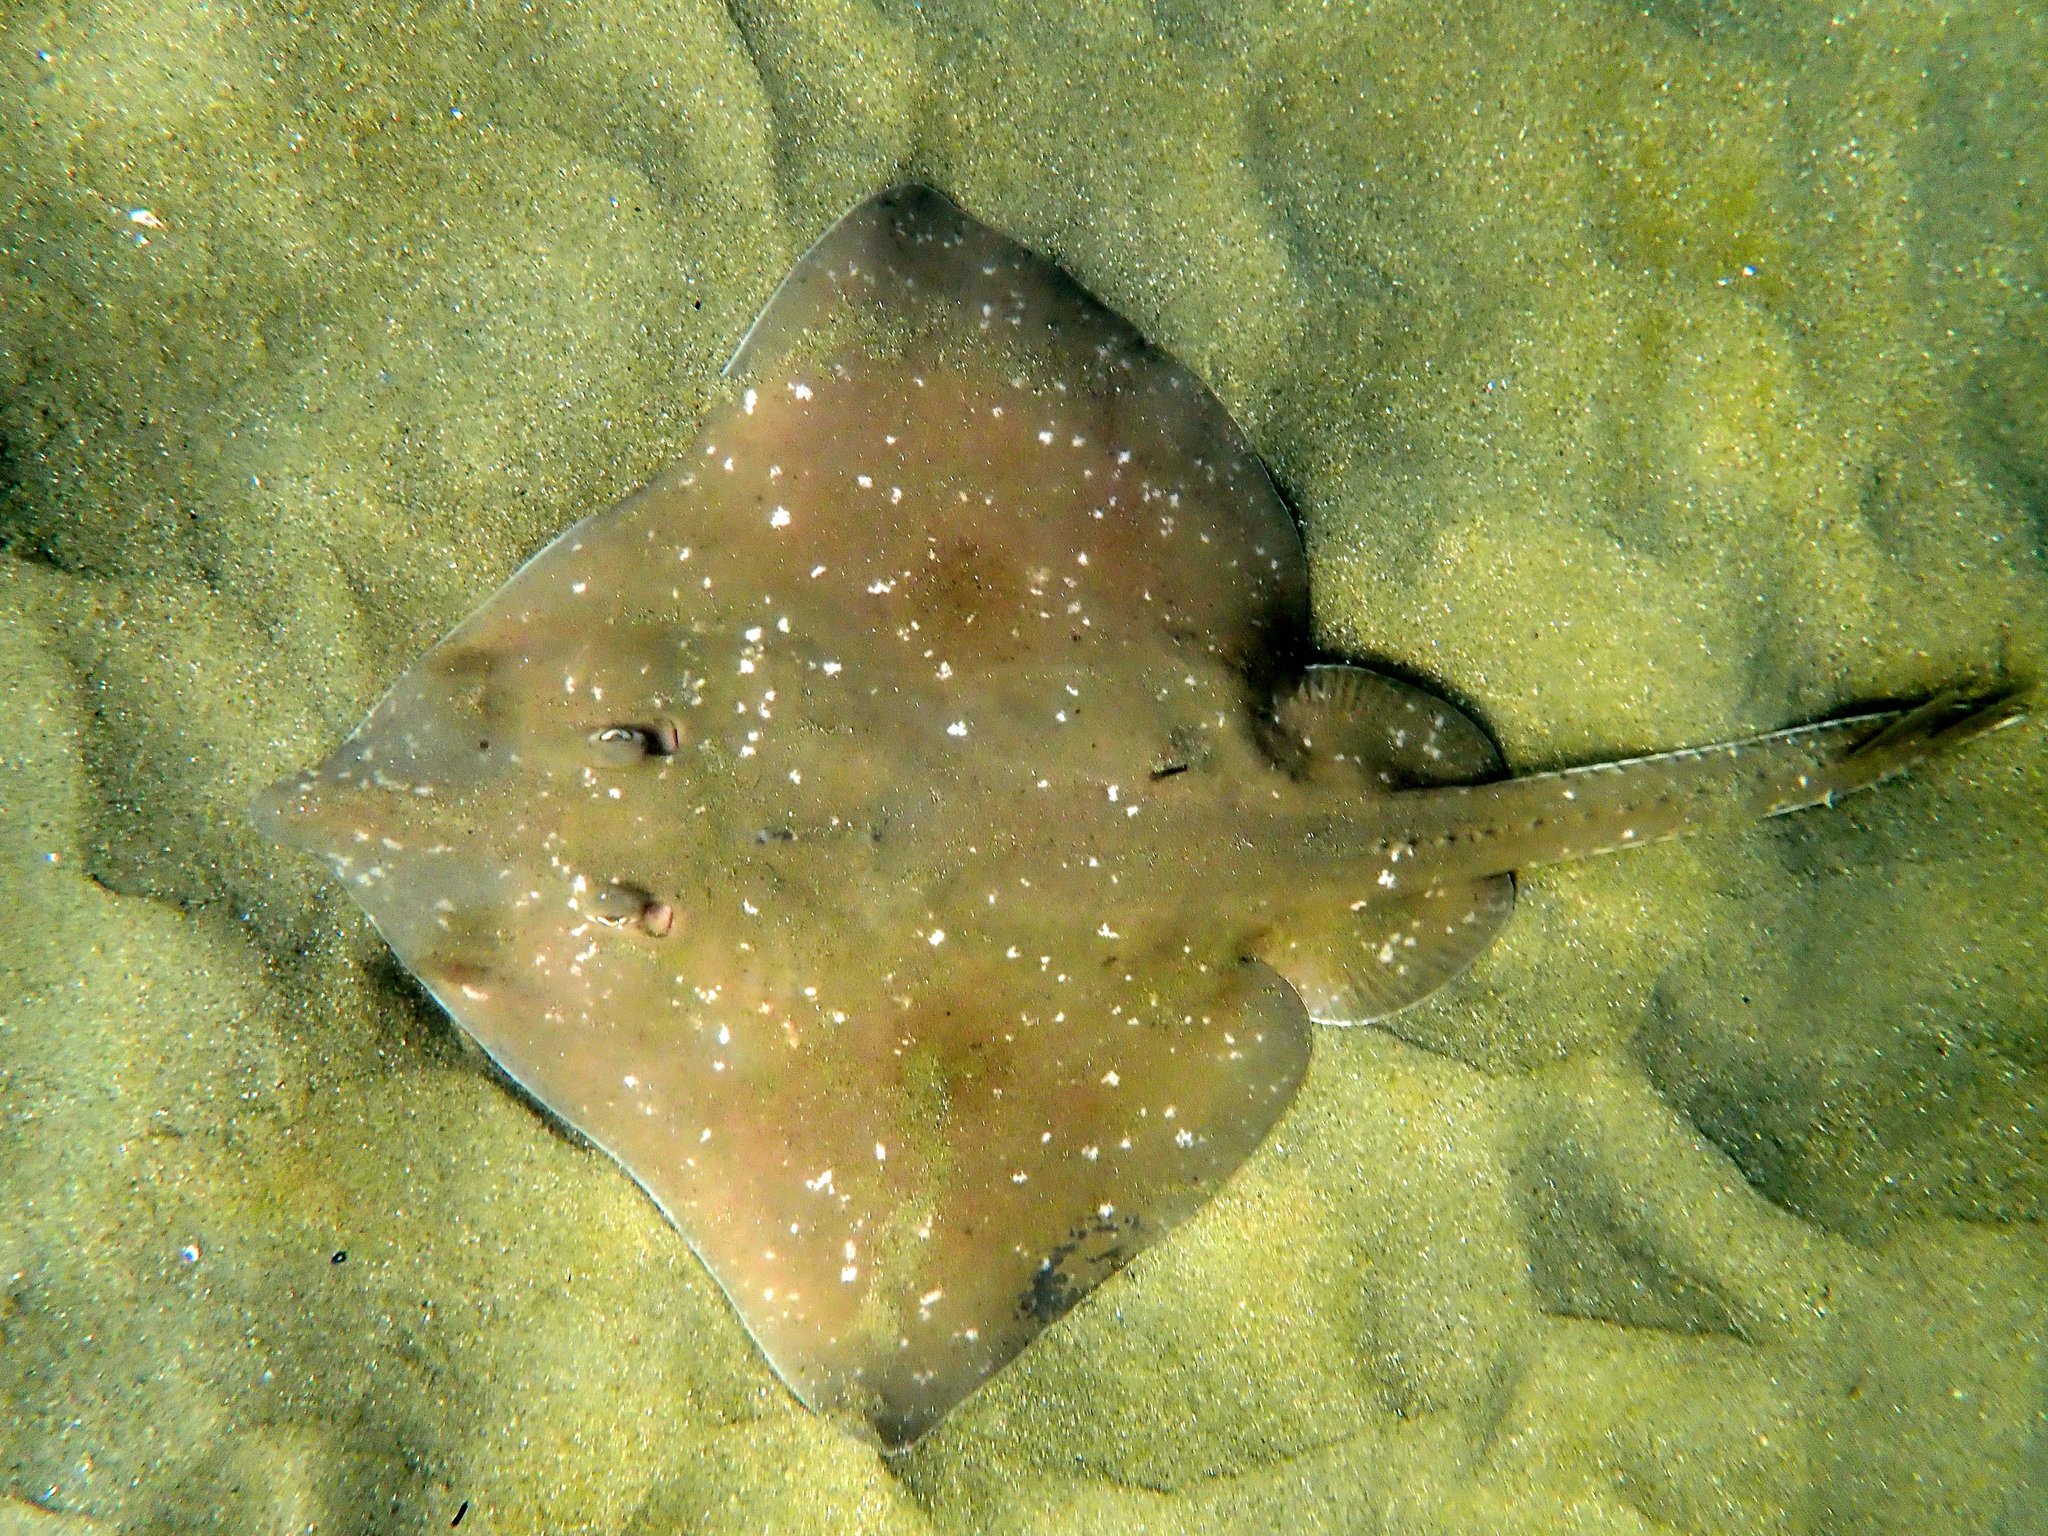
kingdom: Animalia
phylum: Chordata
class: Elasmobranchii
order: Rajiformes
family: Rajidae
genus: Dipturus
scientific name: Dipturus whitleyi
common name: Wedgenose skate
